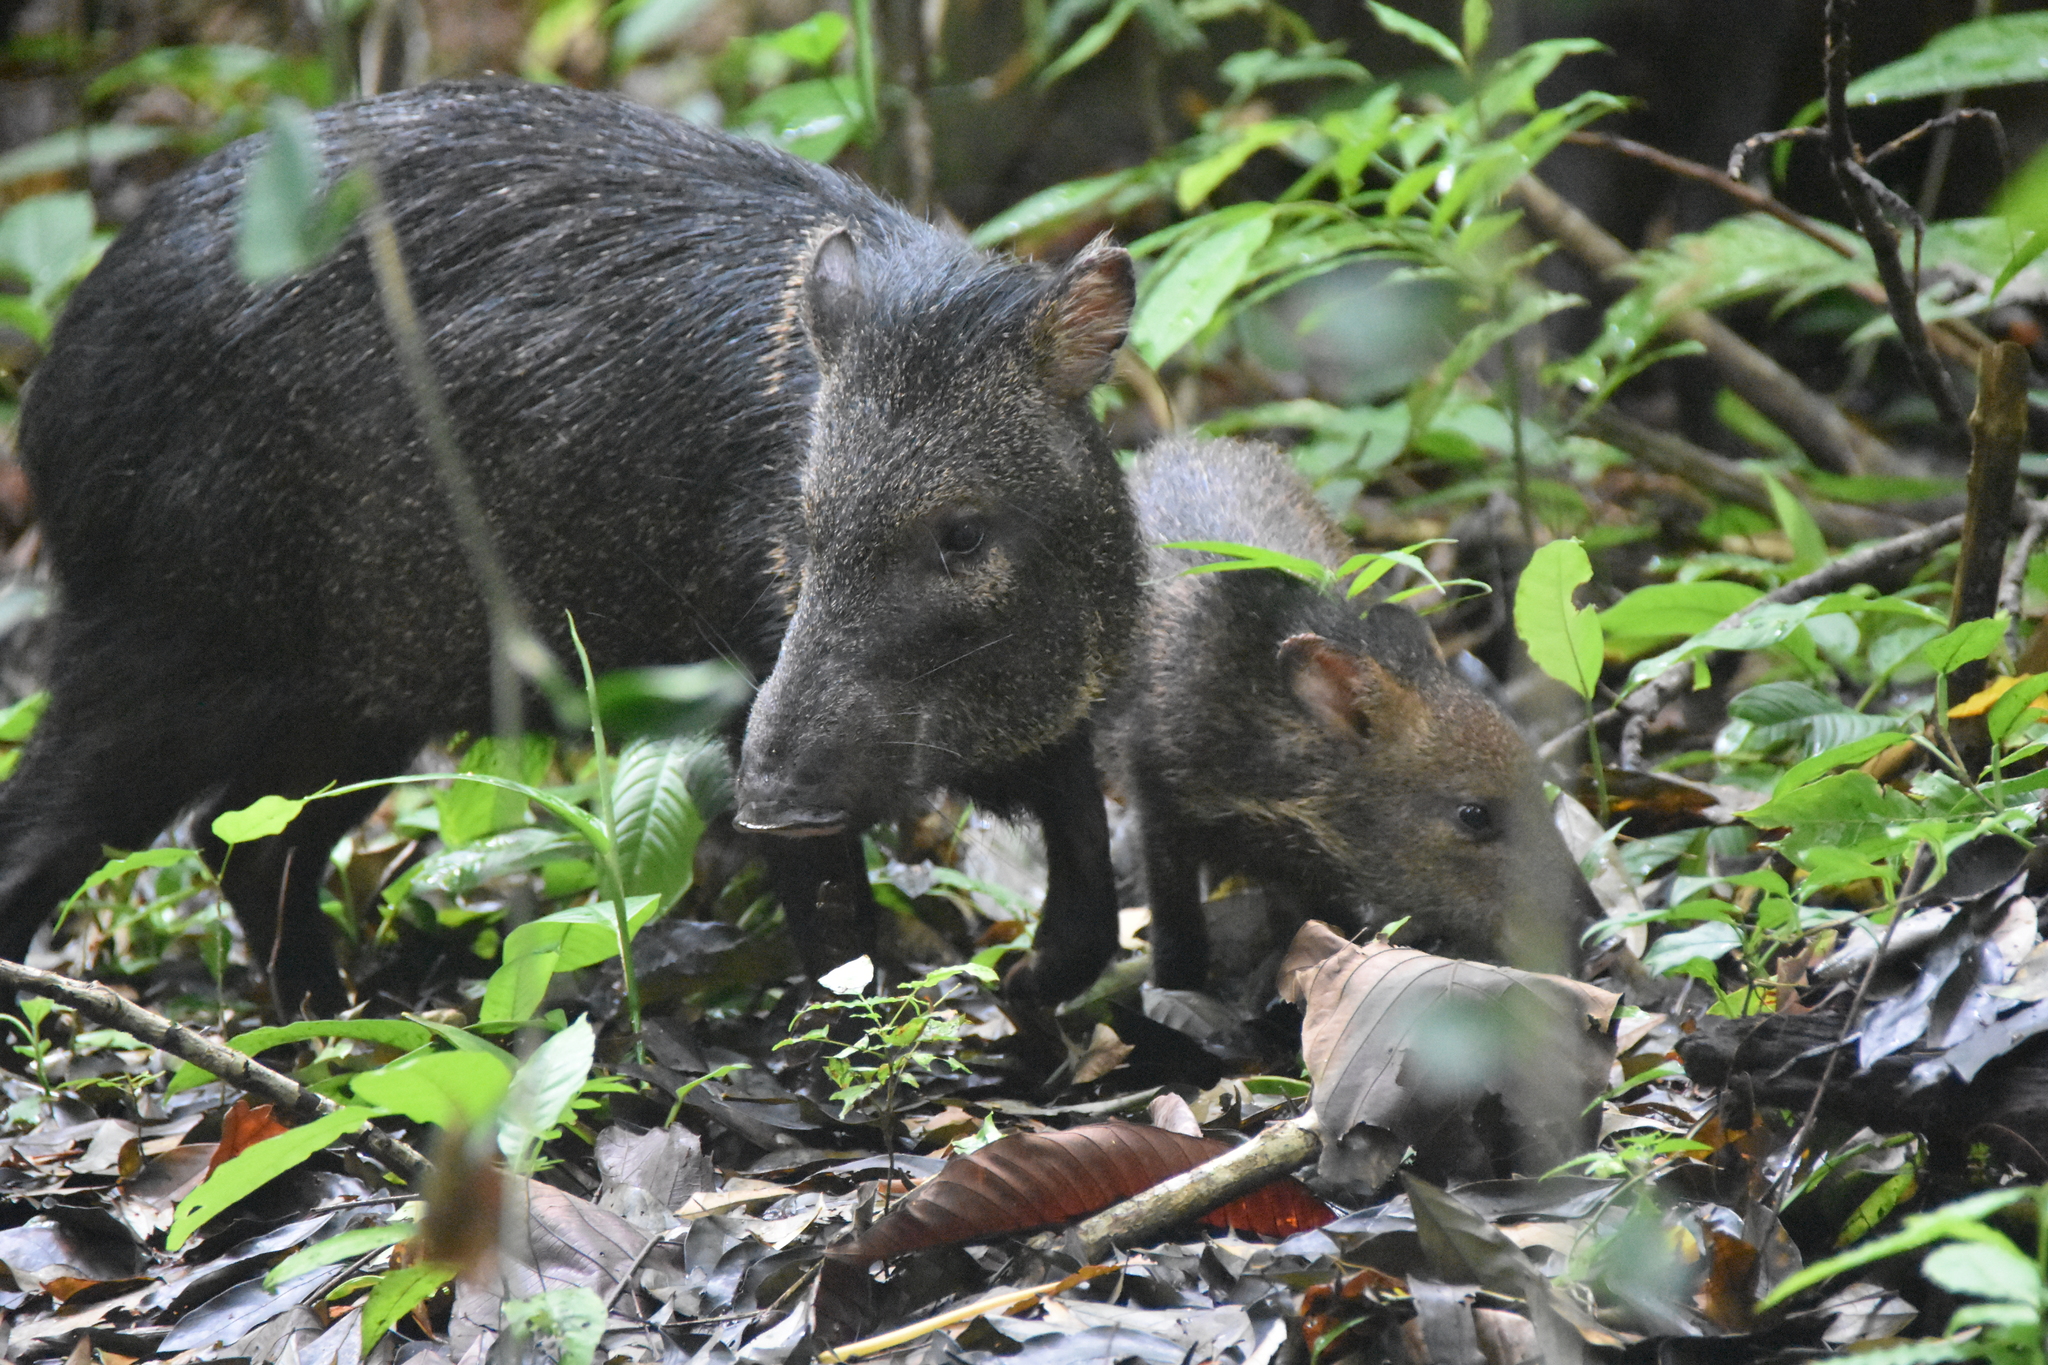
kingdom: Animalia
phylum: Chordata
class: Mammalia
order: Artiodactyla
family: Tayassuidae
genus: Pecari
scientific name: Pecari tajacu
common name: Collared peccary
